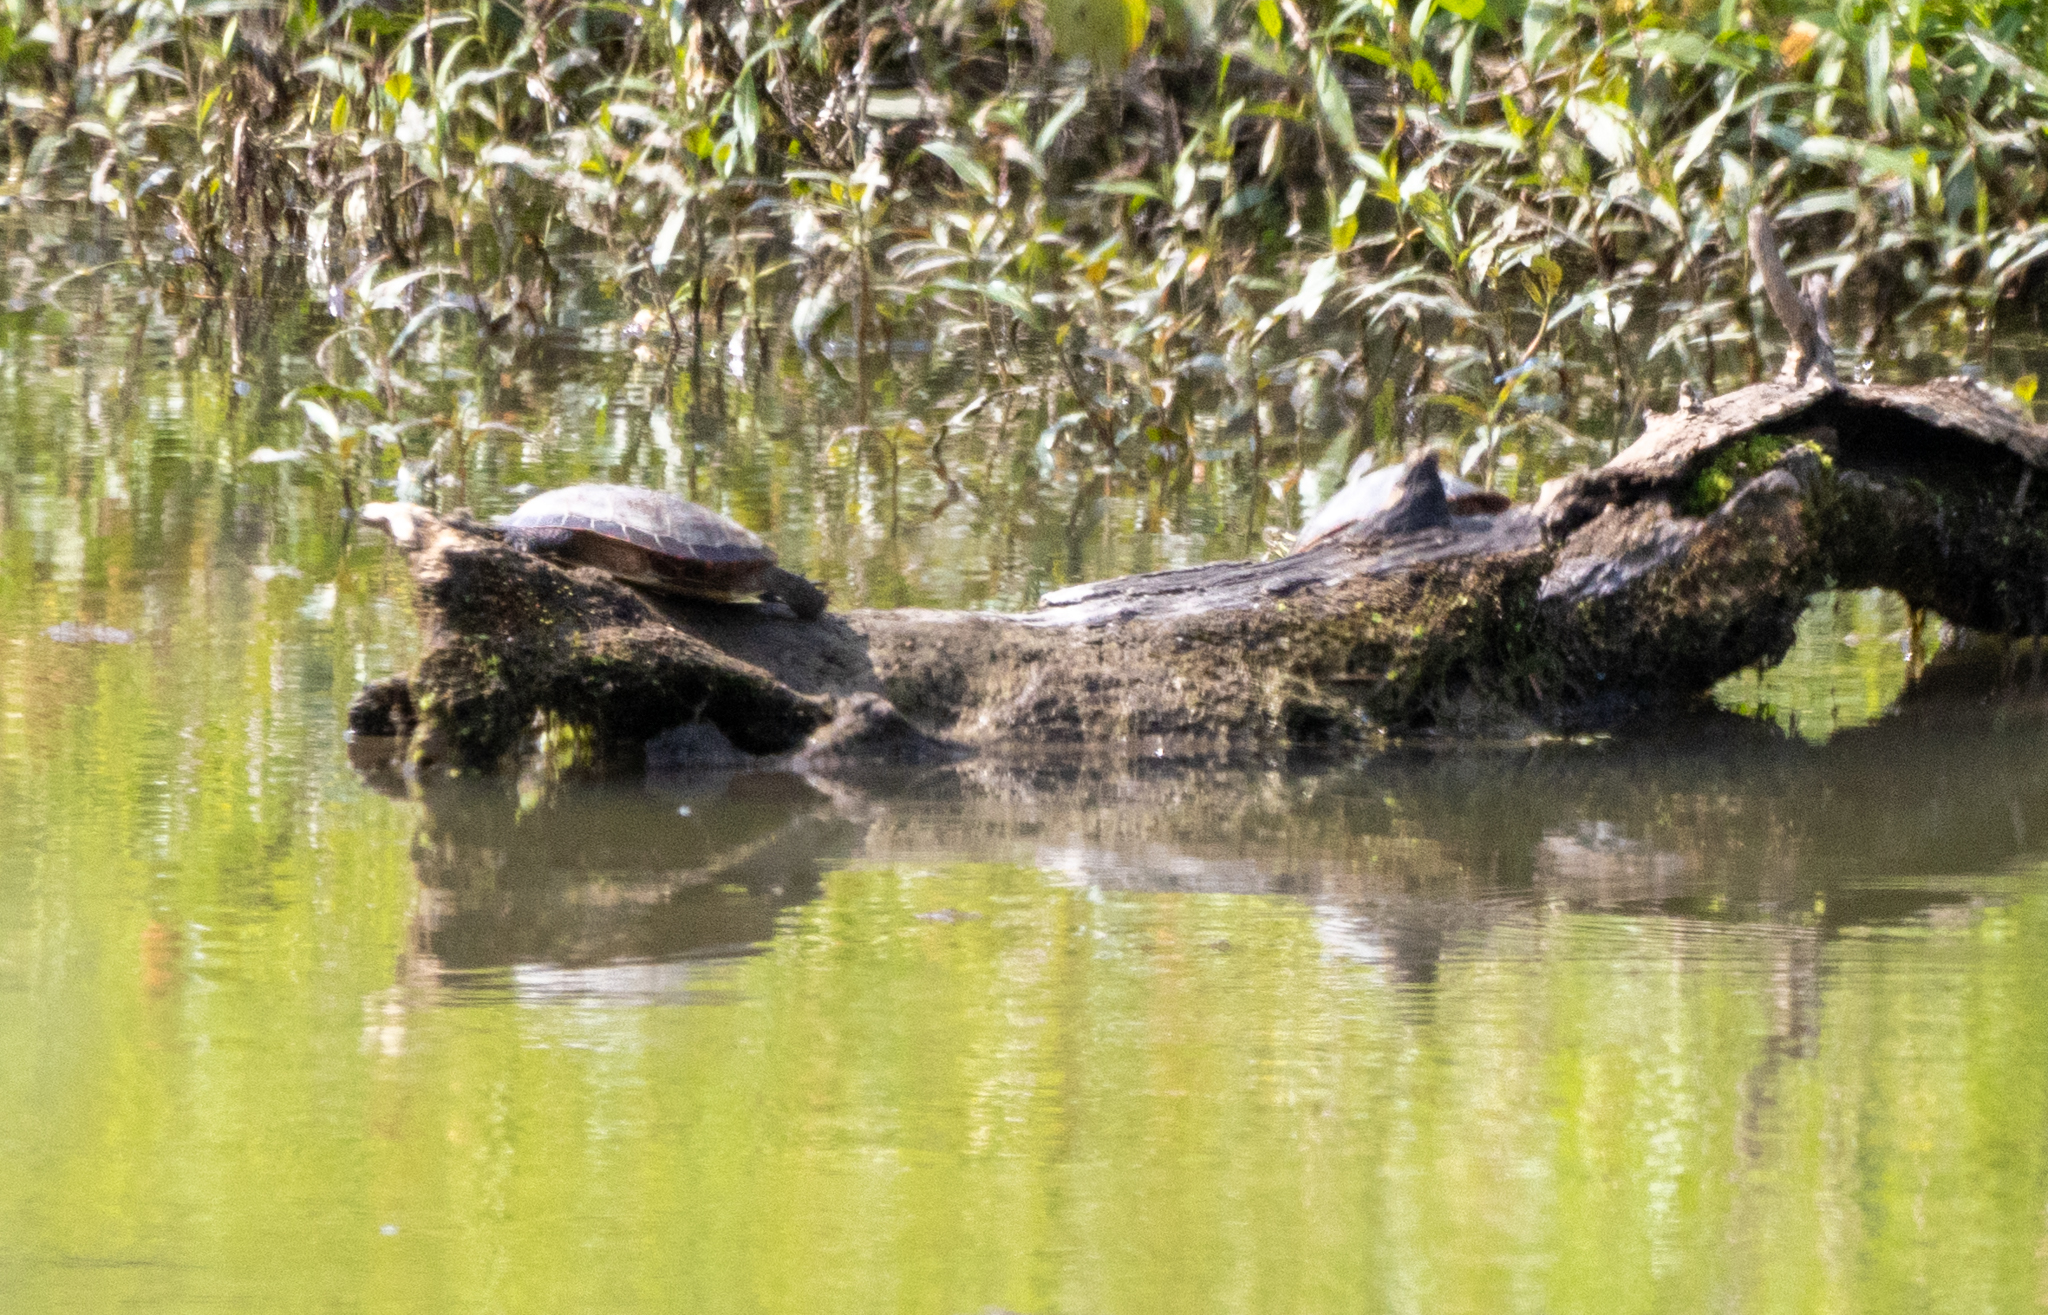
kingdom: Animalia
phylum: Chordata
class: Testudines
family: Emydidae
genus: Chrysemys
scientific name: Chrysemys picta
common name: Painted turtle
